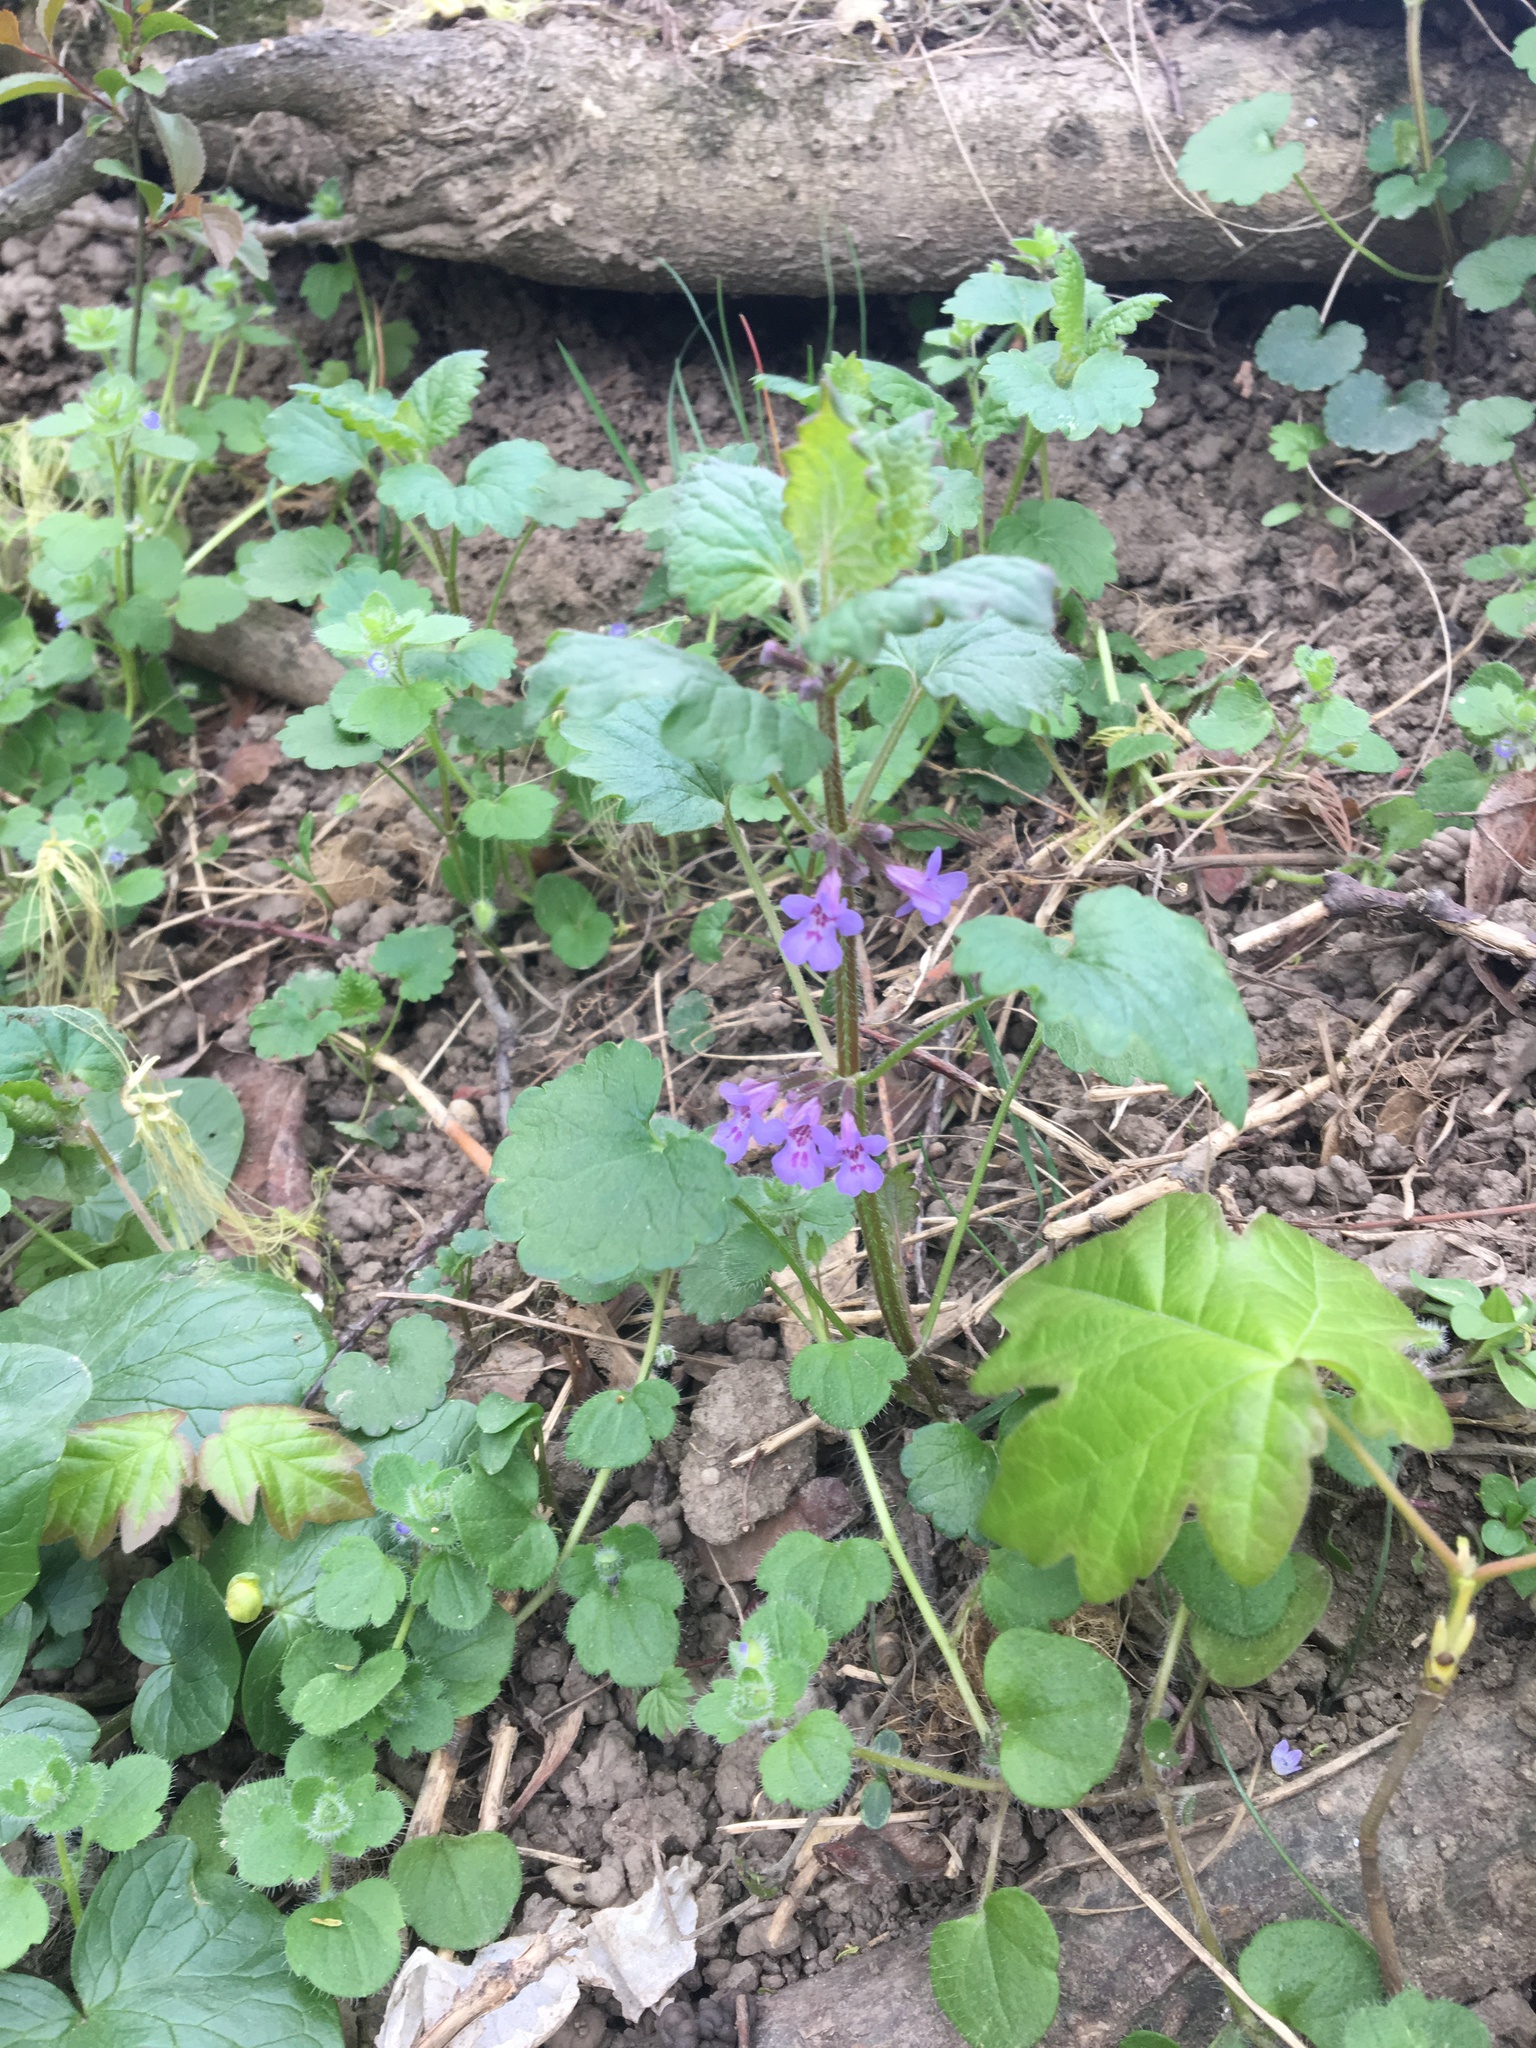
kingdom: Plantae
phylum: Tracheophyta
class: Magnoliopsida
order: Lamiales
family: Lamiaceae
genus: Glechoma
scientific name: Glechoma hederacea
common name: Ground ivy
